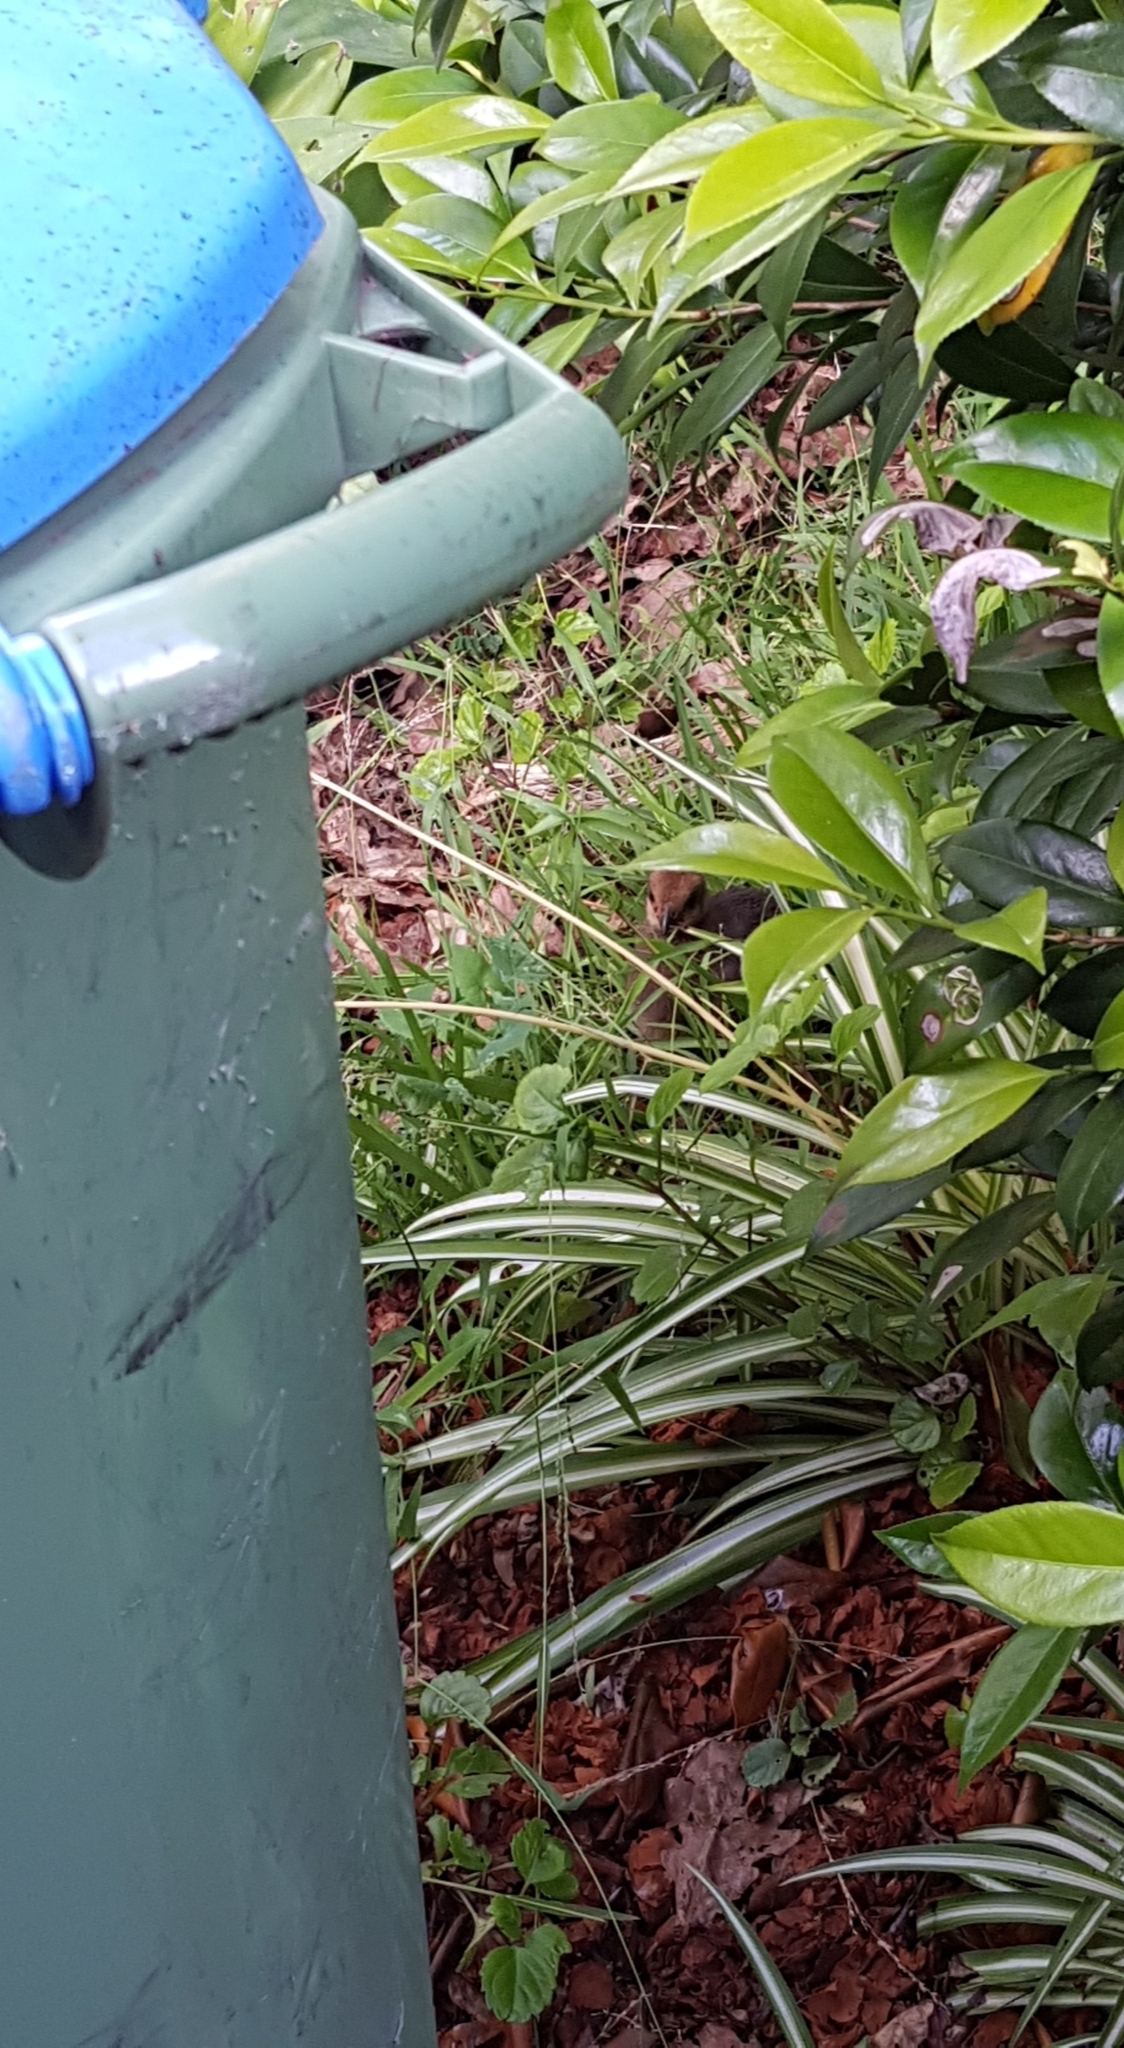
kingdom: Animalia
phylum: Chordata
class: Aves
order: Galliformes
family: Megapodiidae
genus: Alectura
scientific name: Alectura lathami
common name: Australian brushturkey
